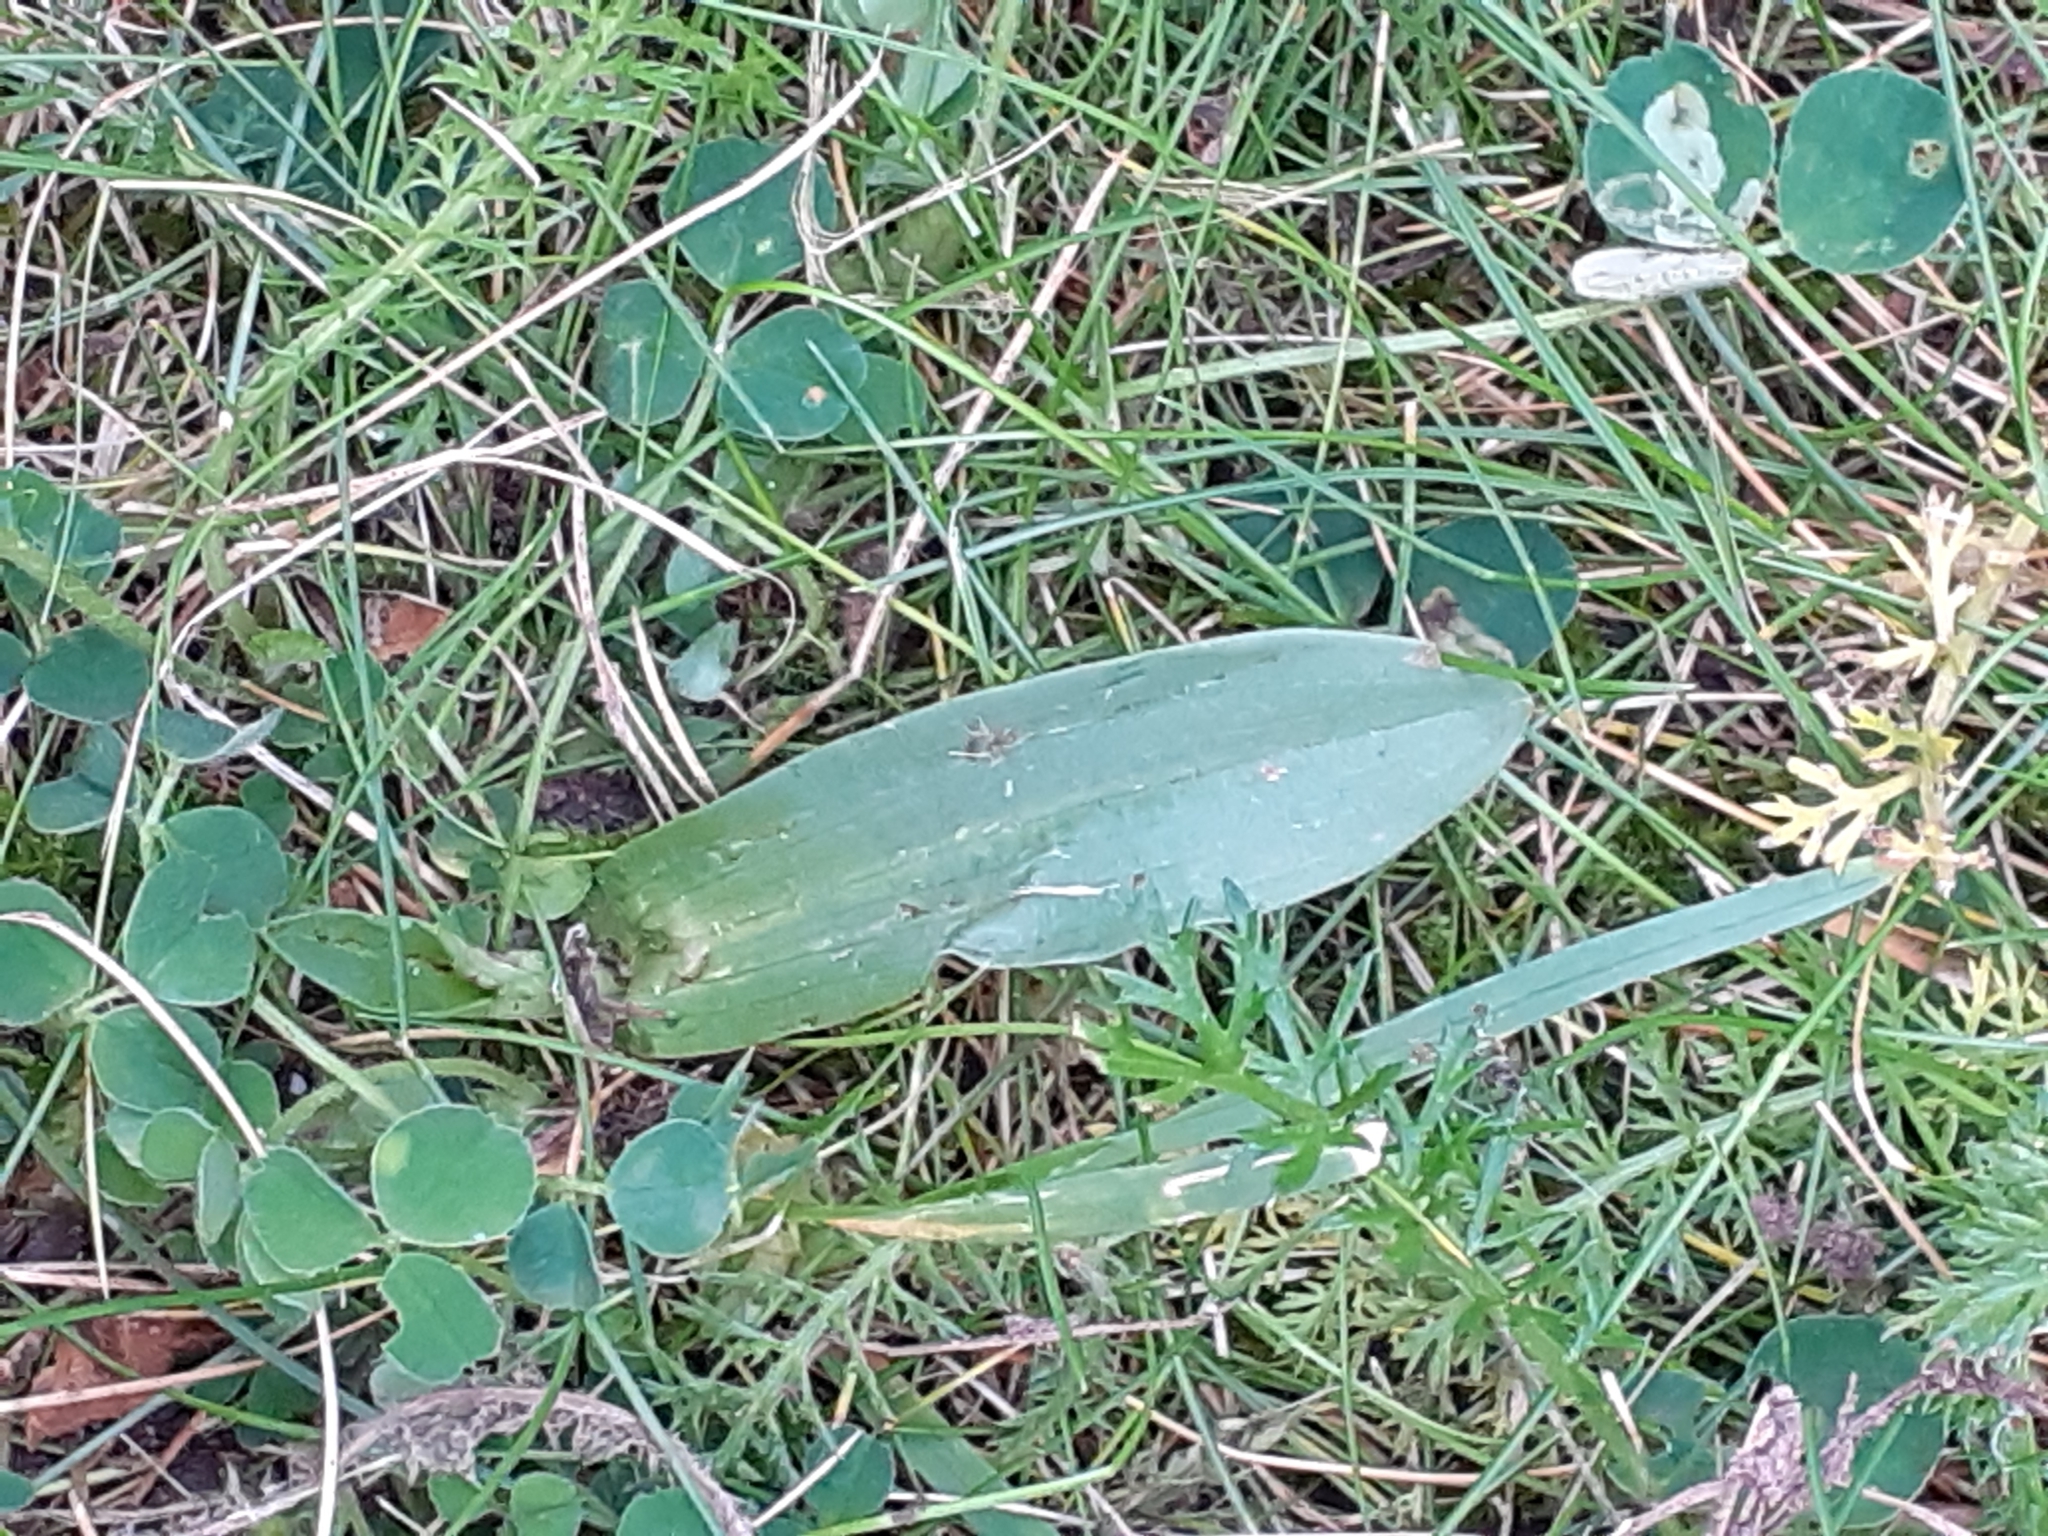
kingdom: Plantae
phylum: Tracheophyta
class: Liliopsida
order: Asparagales
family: Orchidaceae
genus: Ophrys
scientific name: Ophrys apifera
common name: Bee orchid
